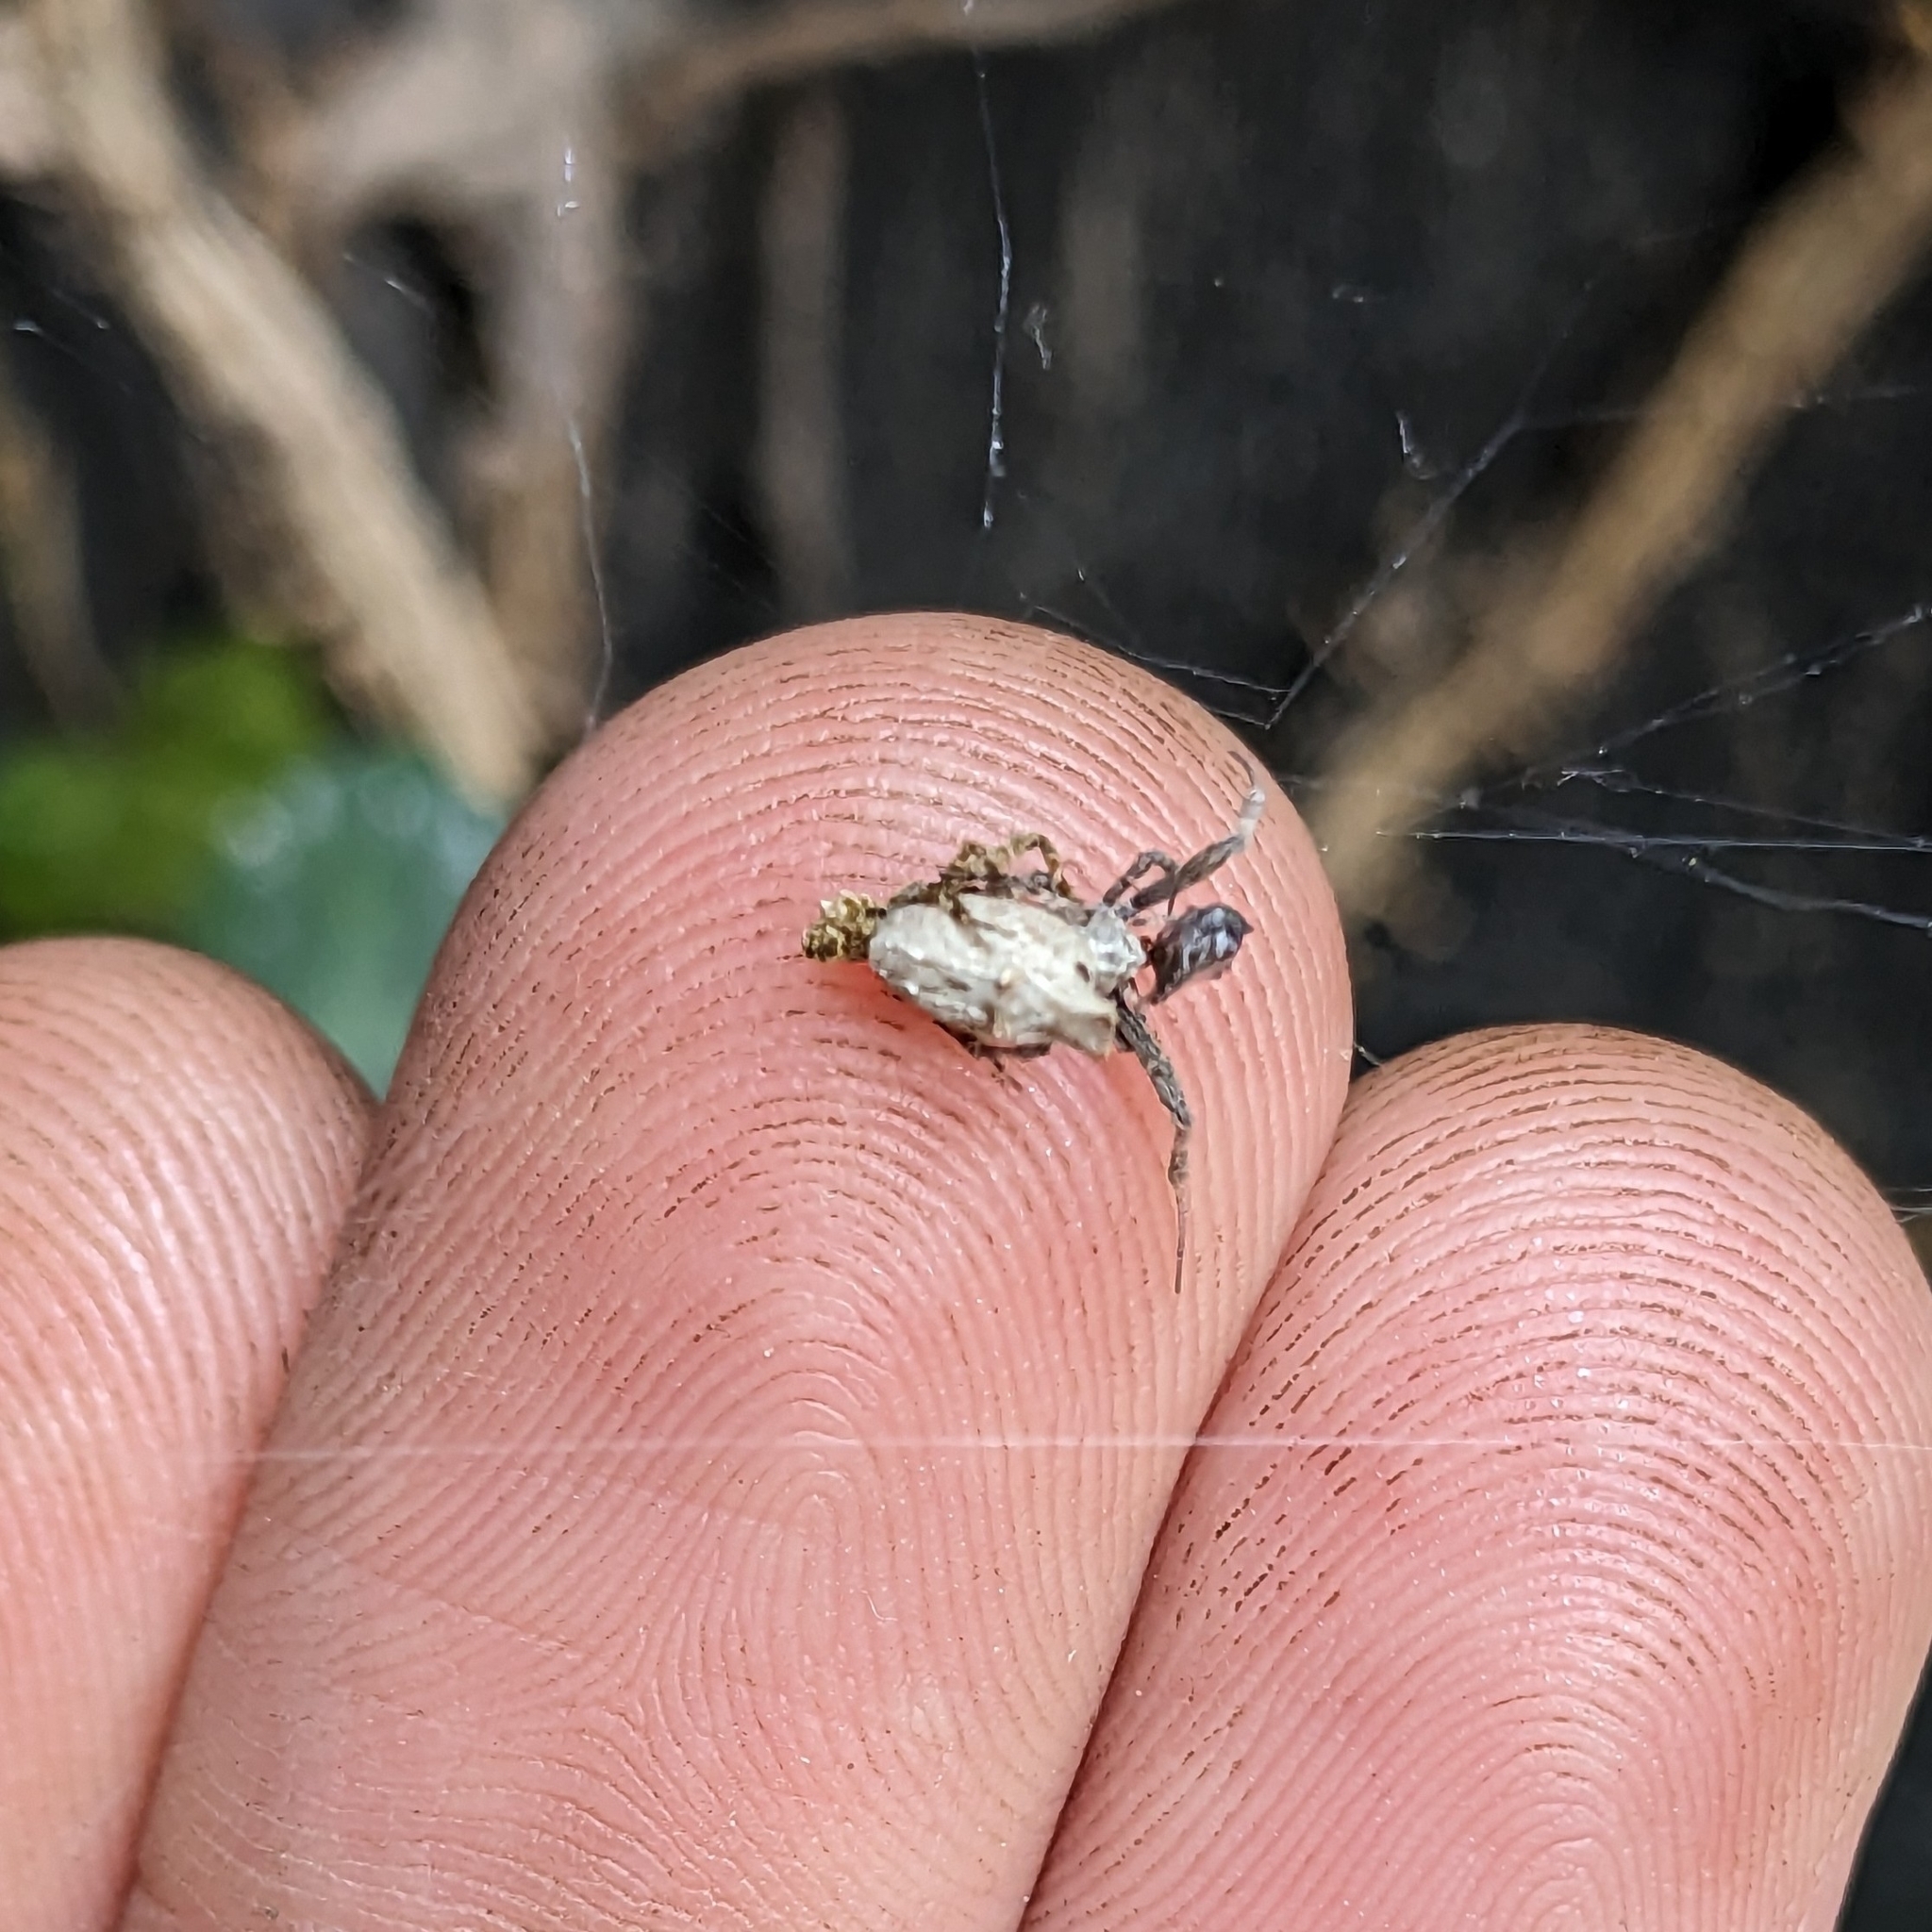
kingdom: Animalia
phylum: Arthropoda
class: Arachnida
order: Araneae
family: Uloboridae
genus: Philoponella
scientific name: Philoponella congregabilis
